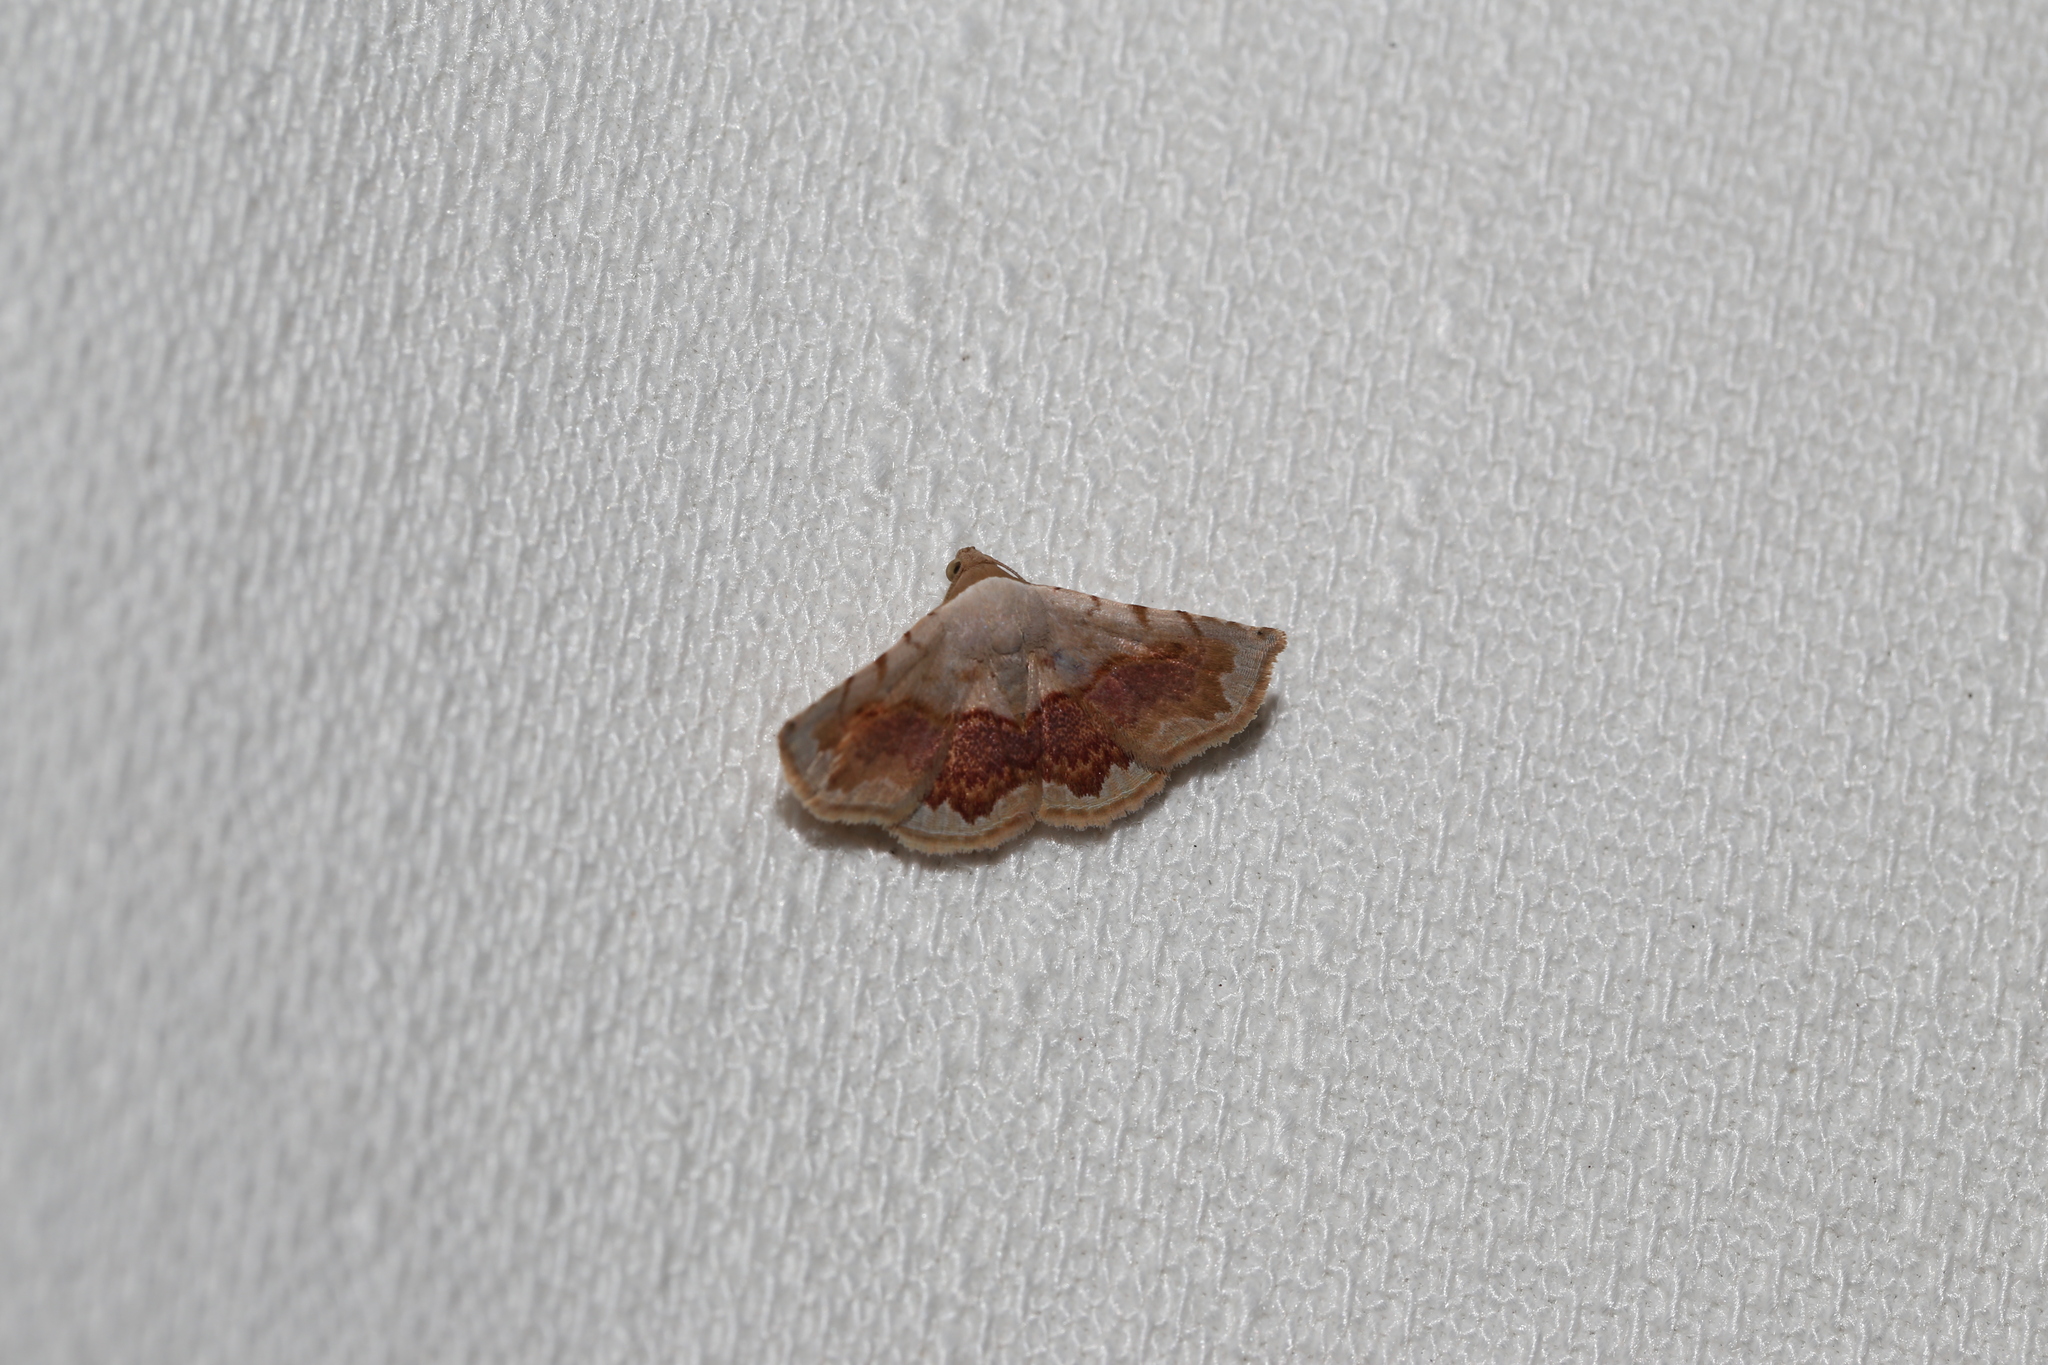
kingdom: Animalia
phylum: Arthropoda
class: Insecta
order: Lepidoptera
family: Noctuidae
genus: Eublemma
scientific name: Eublemma
